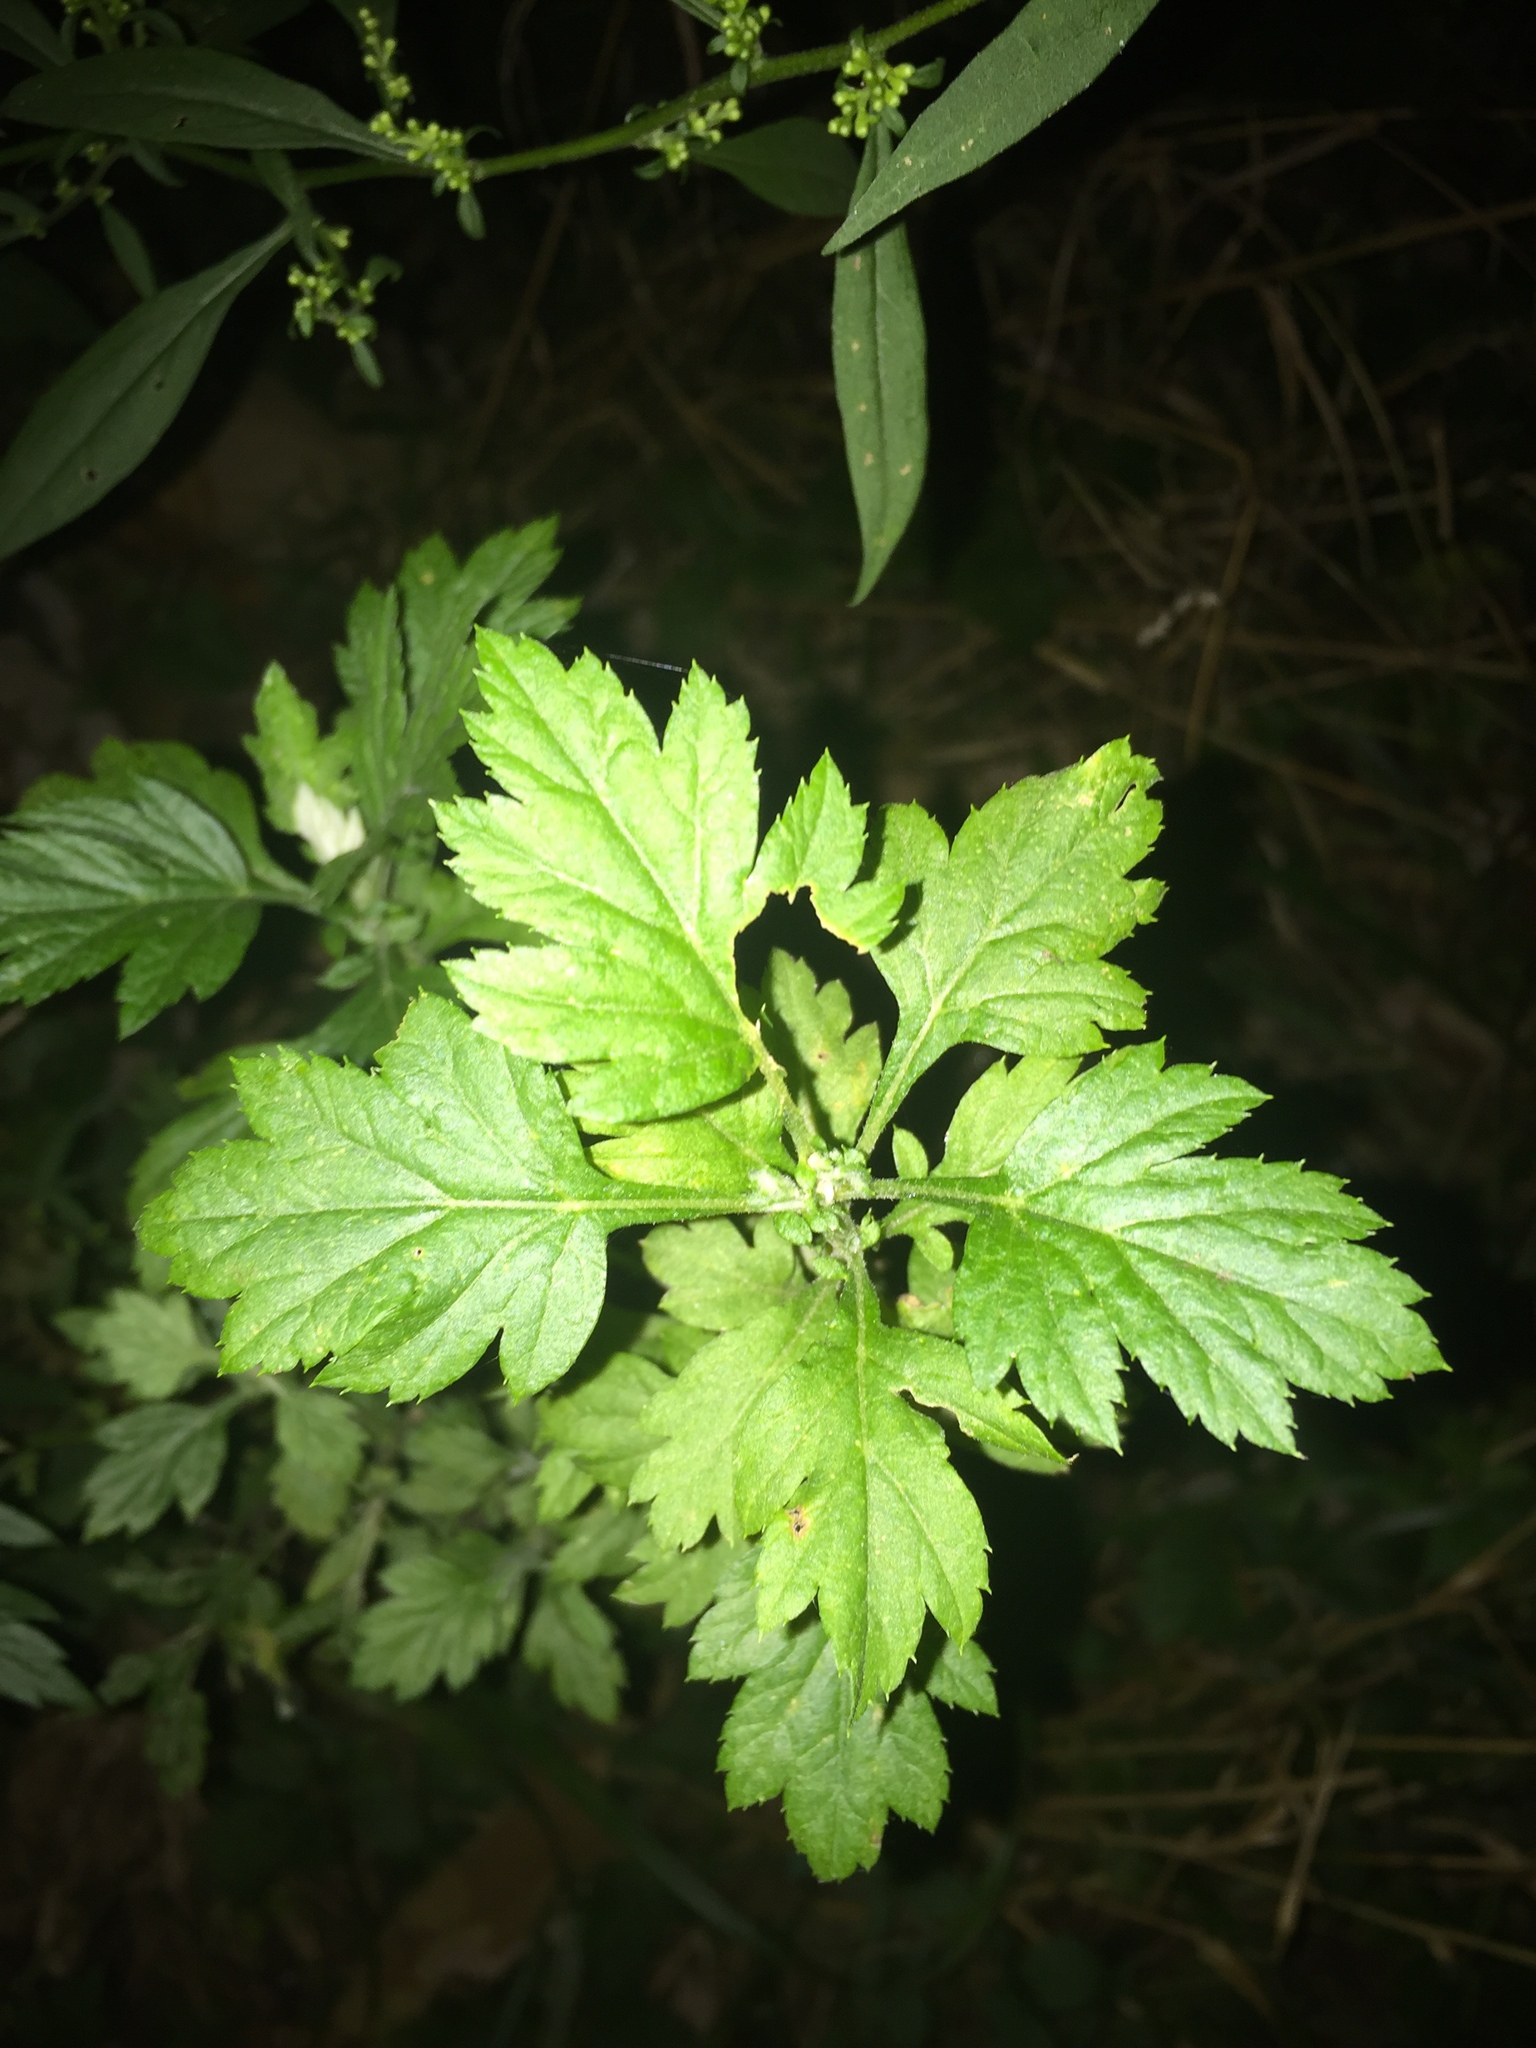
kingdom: Plantae
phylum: Tracheophyta
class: Magnoliopsida
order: Asterales
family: Asteraceae
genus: Artemisia
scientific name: Artemisia vulgaris
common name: Mugwort
